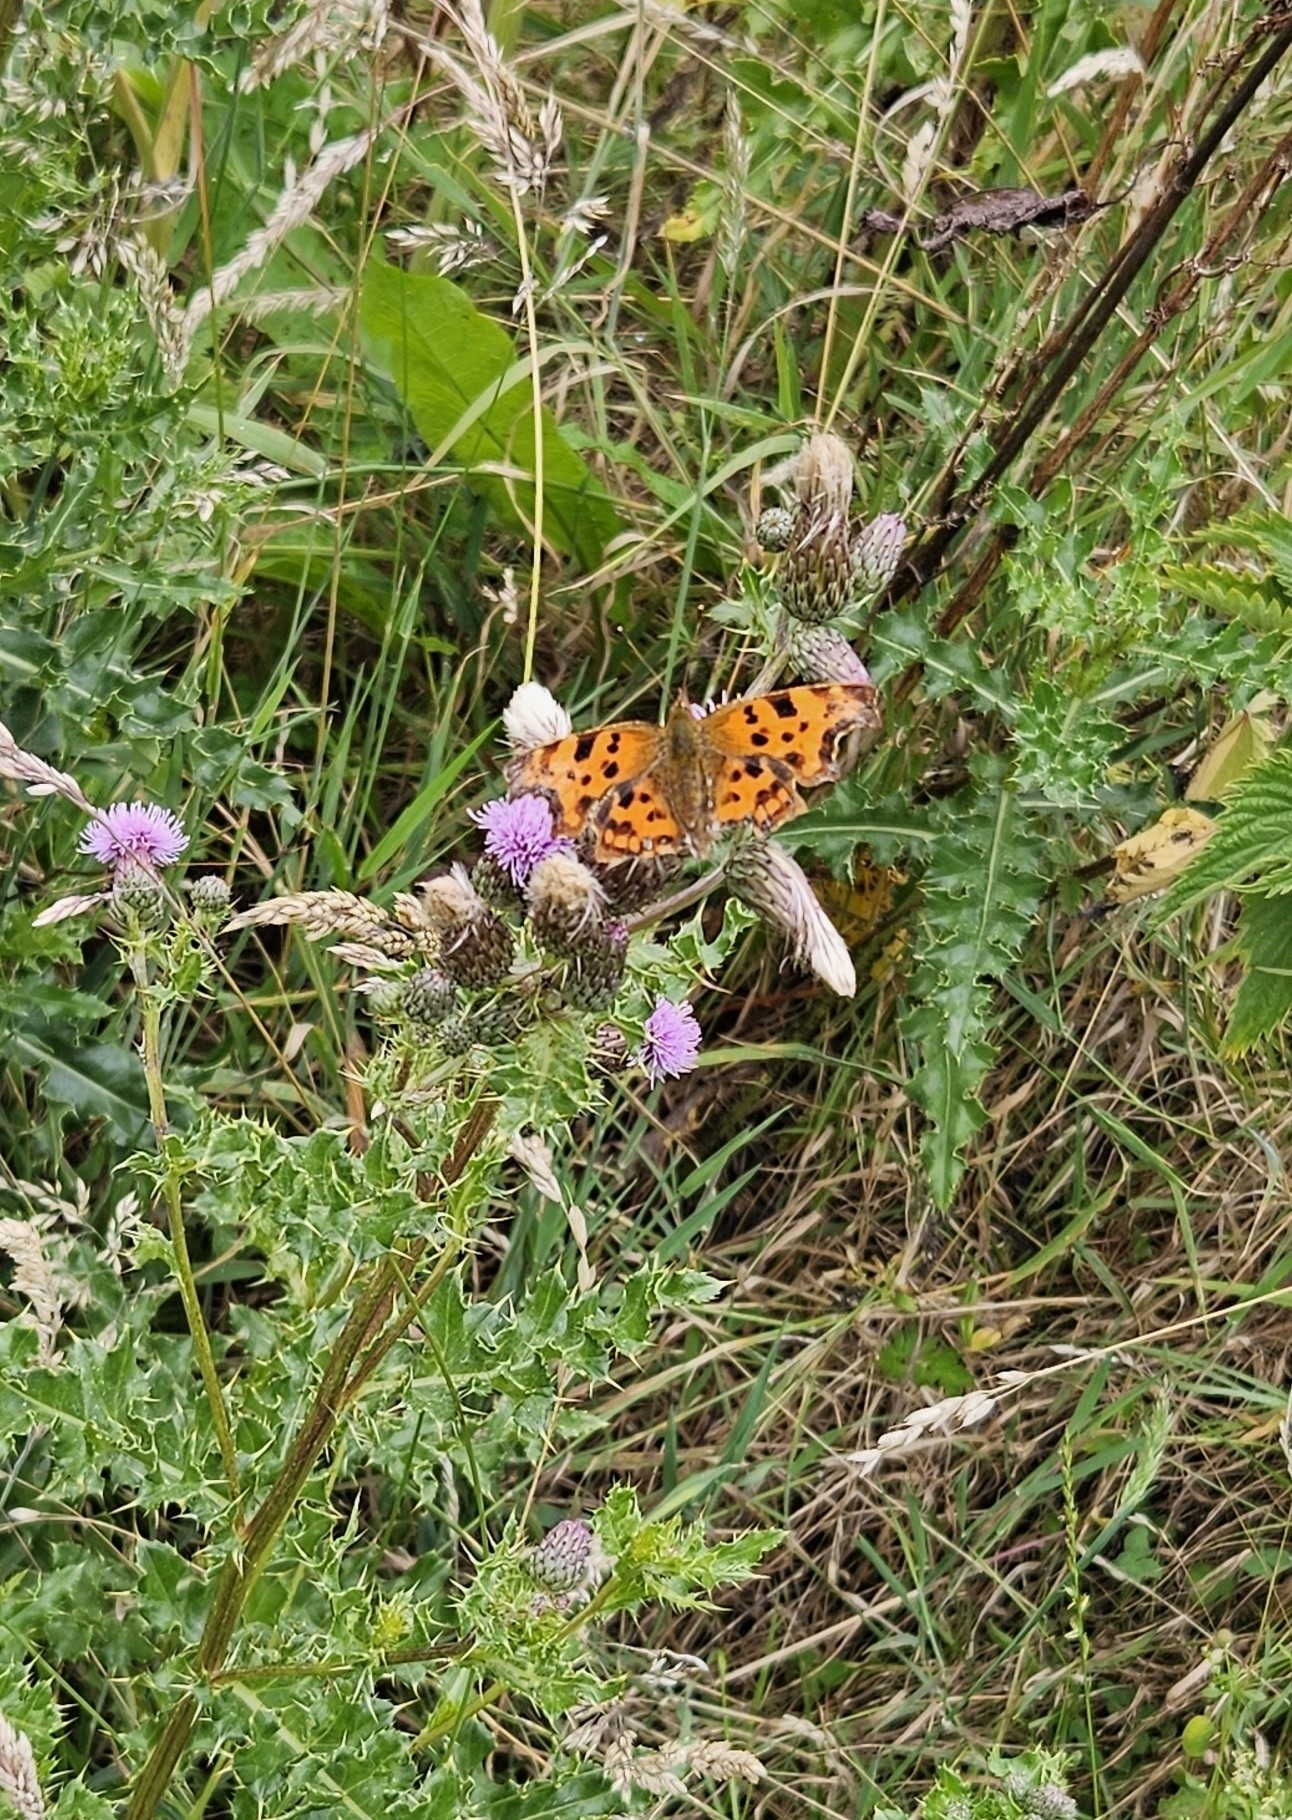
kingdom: Animalia
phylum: Arthropoda
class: Insecta
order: Lepidoptera
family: Nymphalidae
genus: Polygonia
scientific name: Polygonia c-album
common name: Comma
